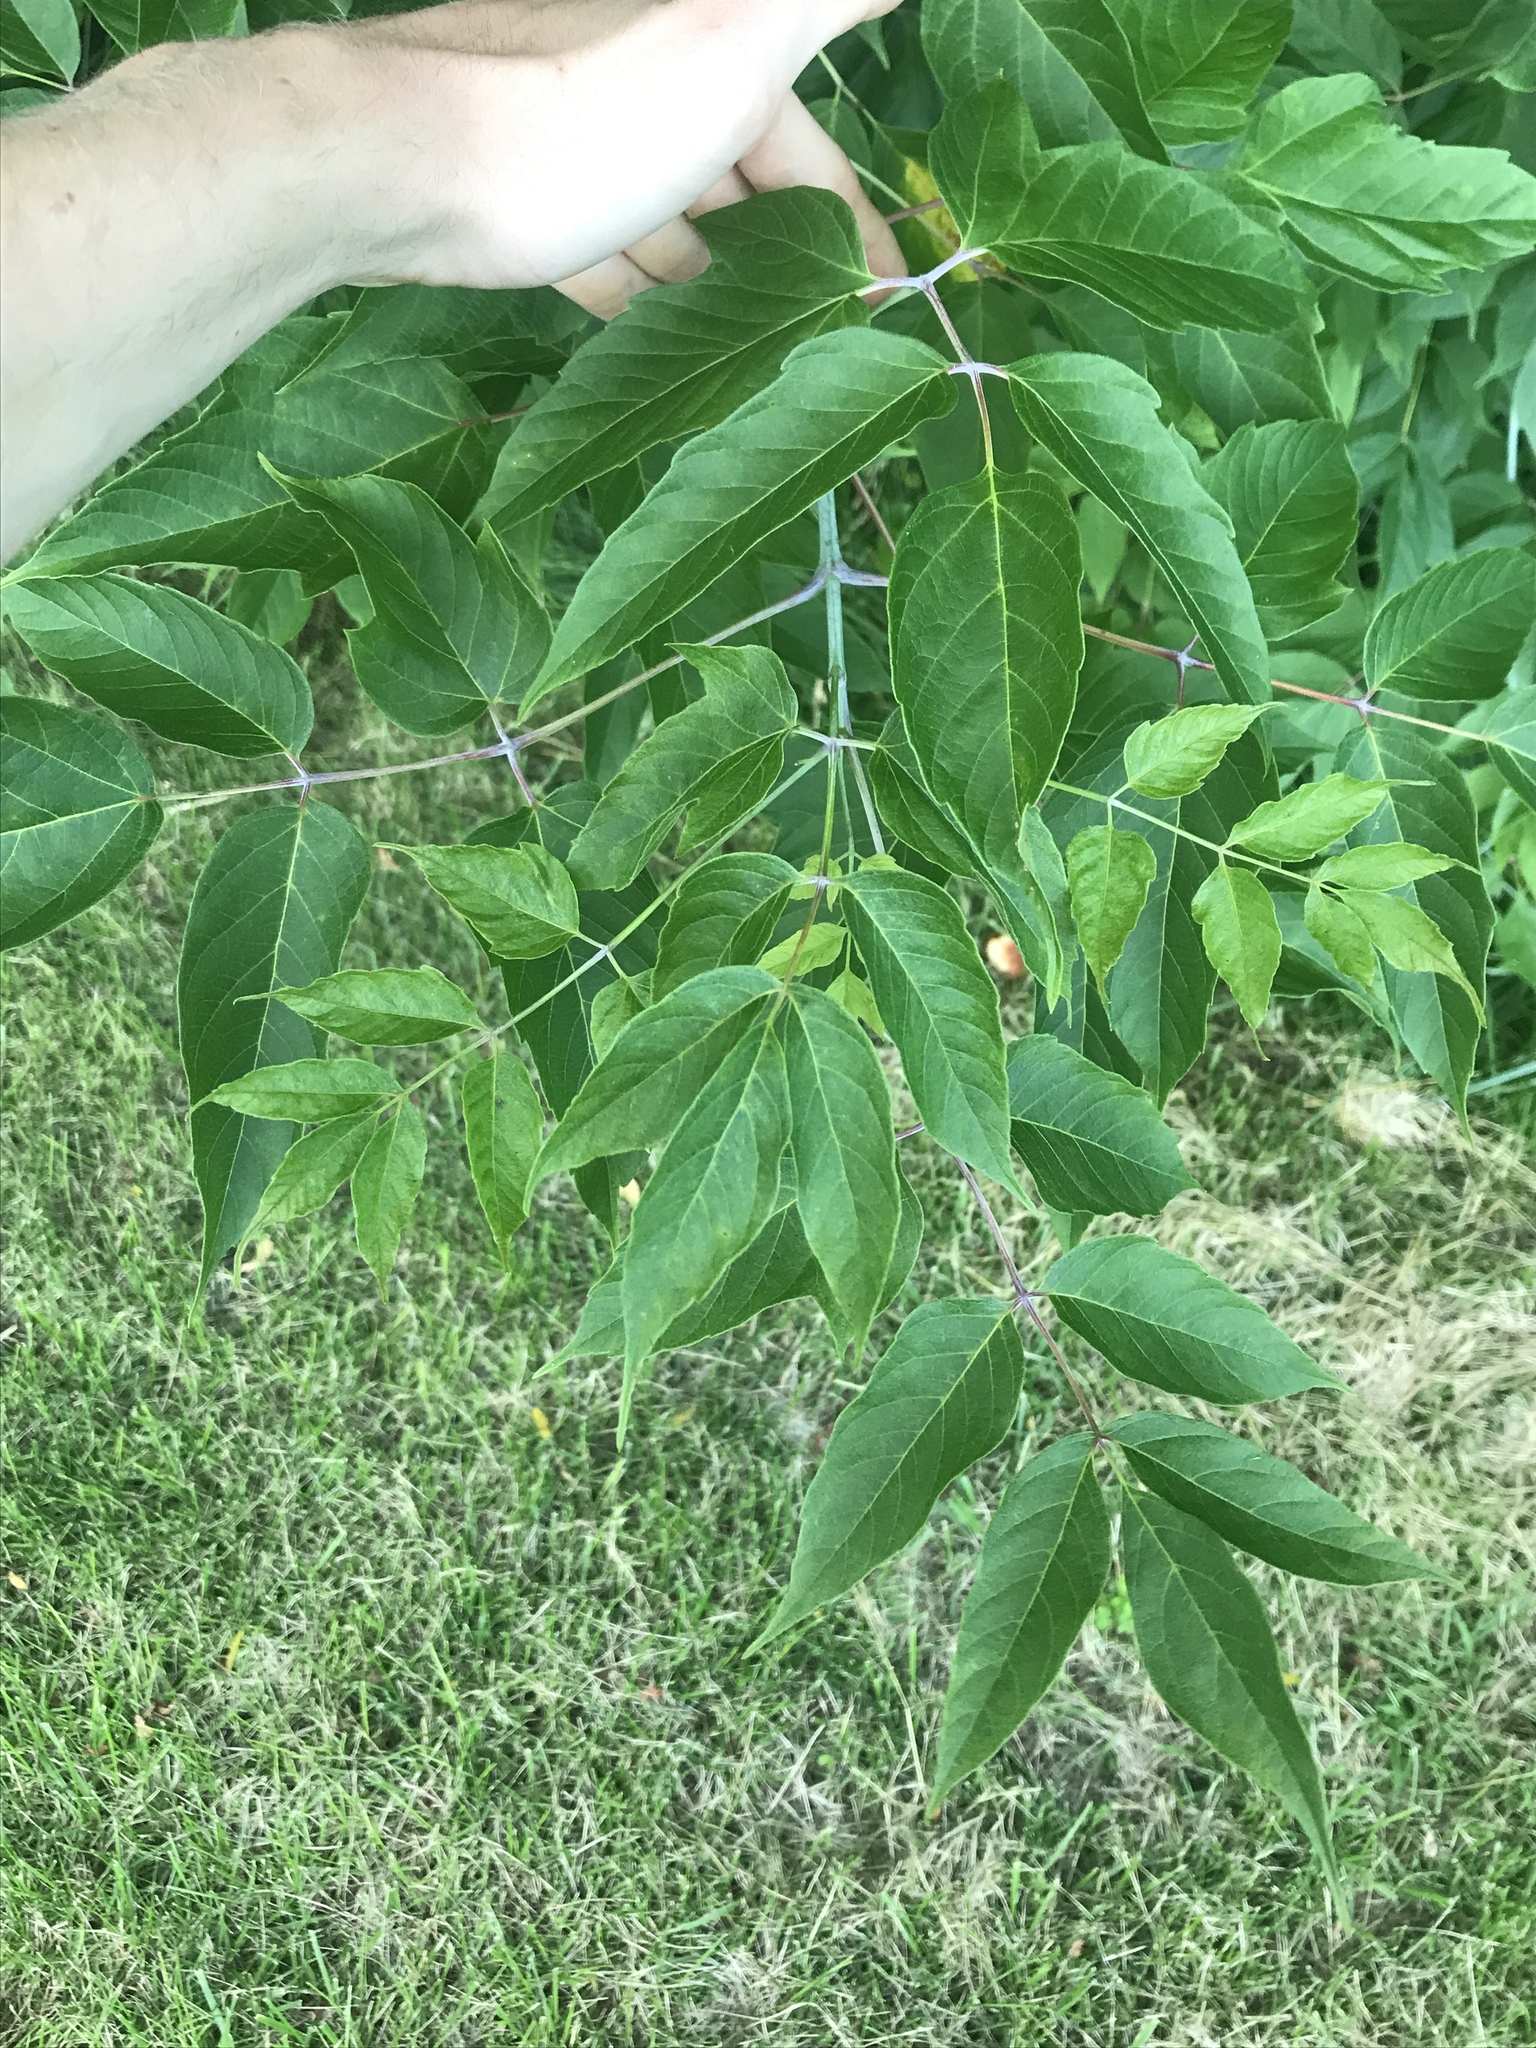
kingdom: Plantae
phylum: Tracheophyta
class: Magnoliopsida
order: Sapindales
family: Sapindaceae
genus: Acer
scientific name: Acer negundo
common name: Ashleaf maple
